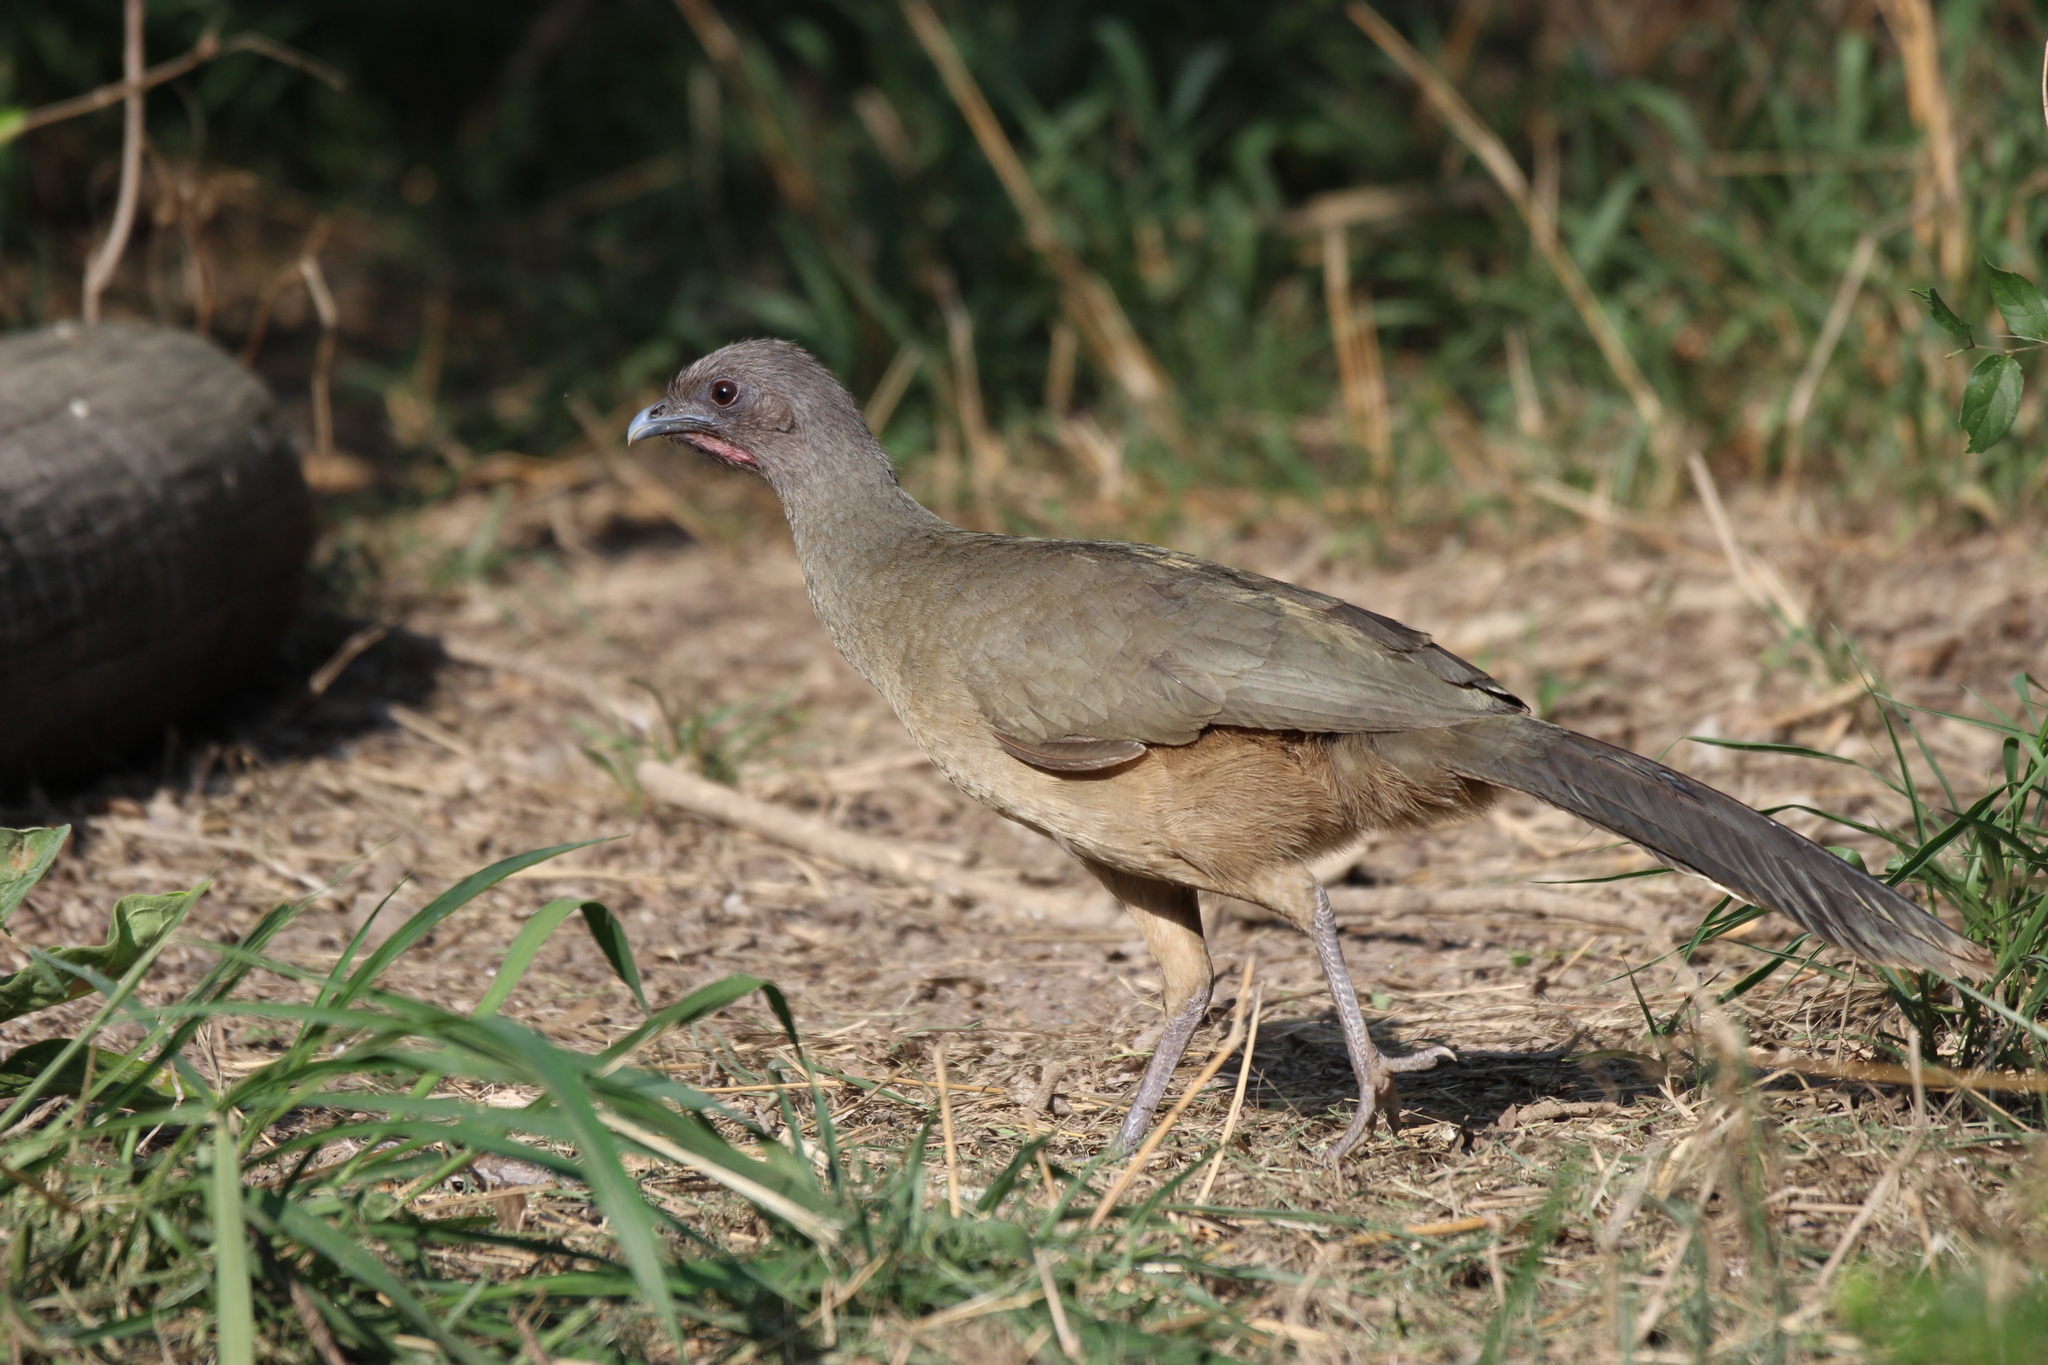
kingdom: Animalia
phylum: Chordata
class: Aves
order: Galliformes
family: Cracidae
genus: Ortalis
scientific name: Ortalis vetula
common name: Plain chachalaca
